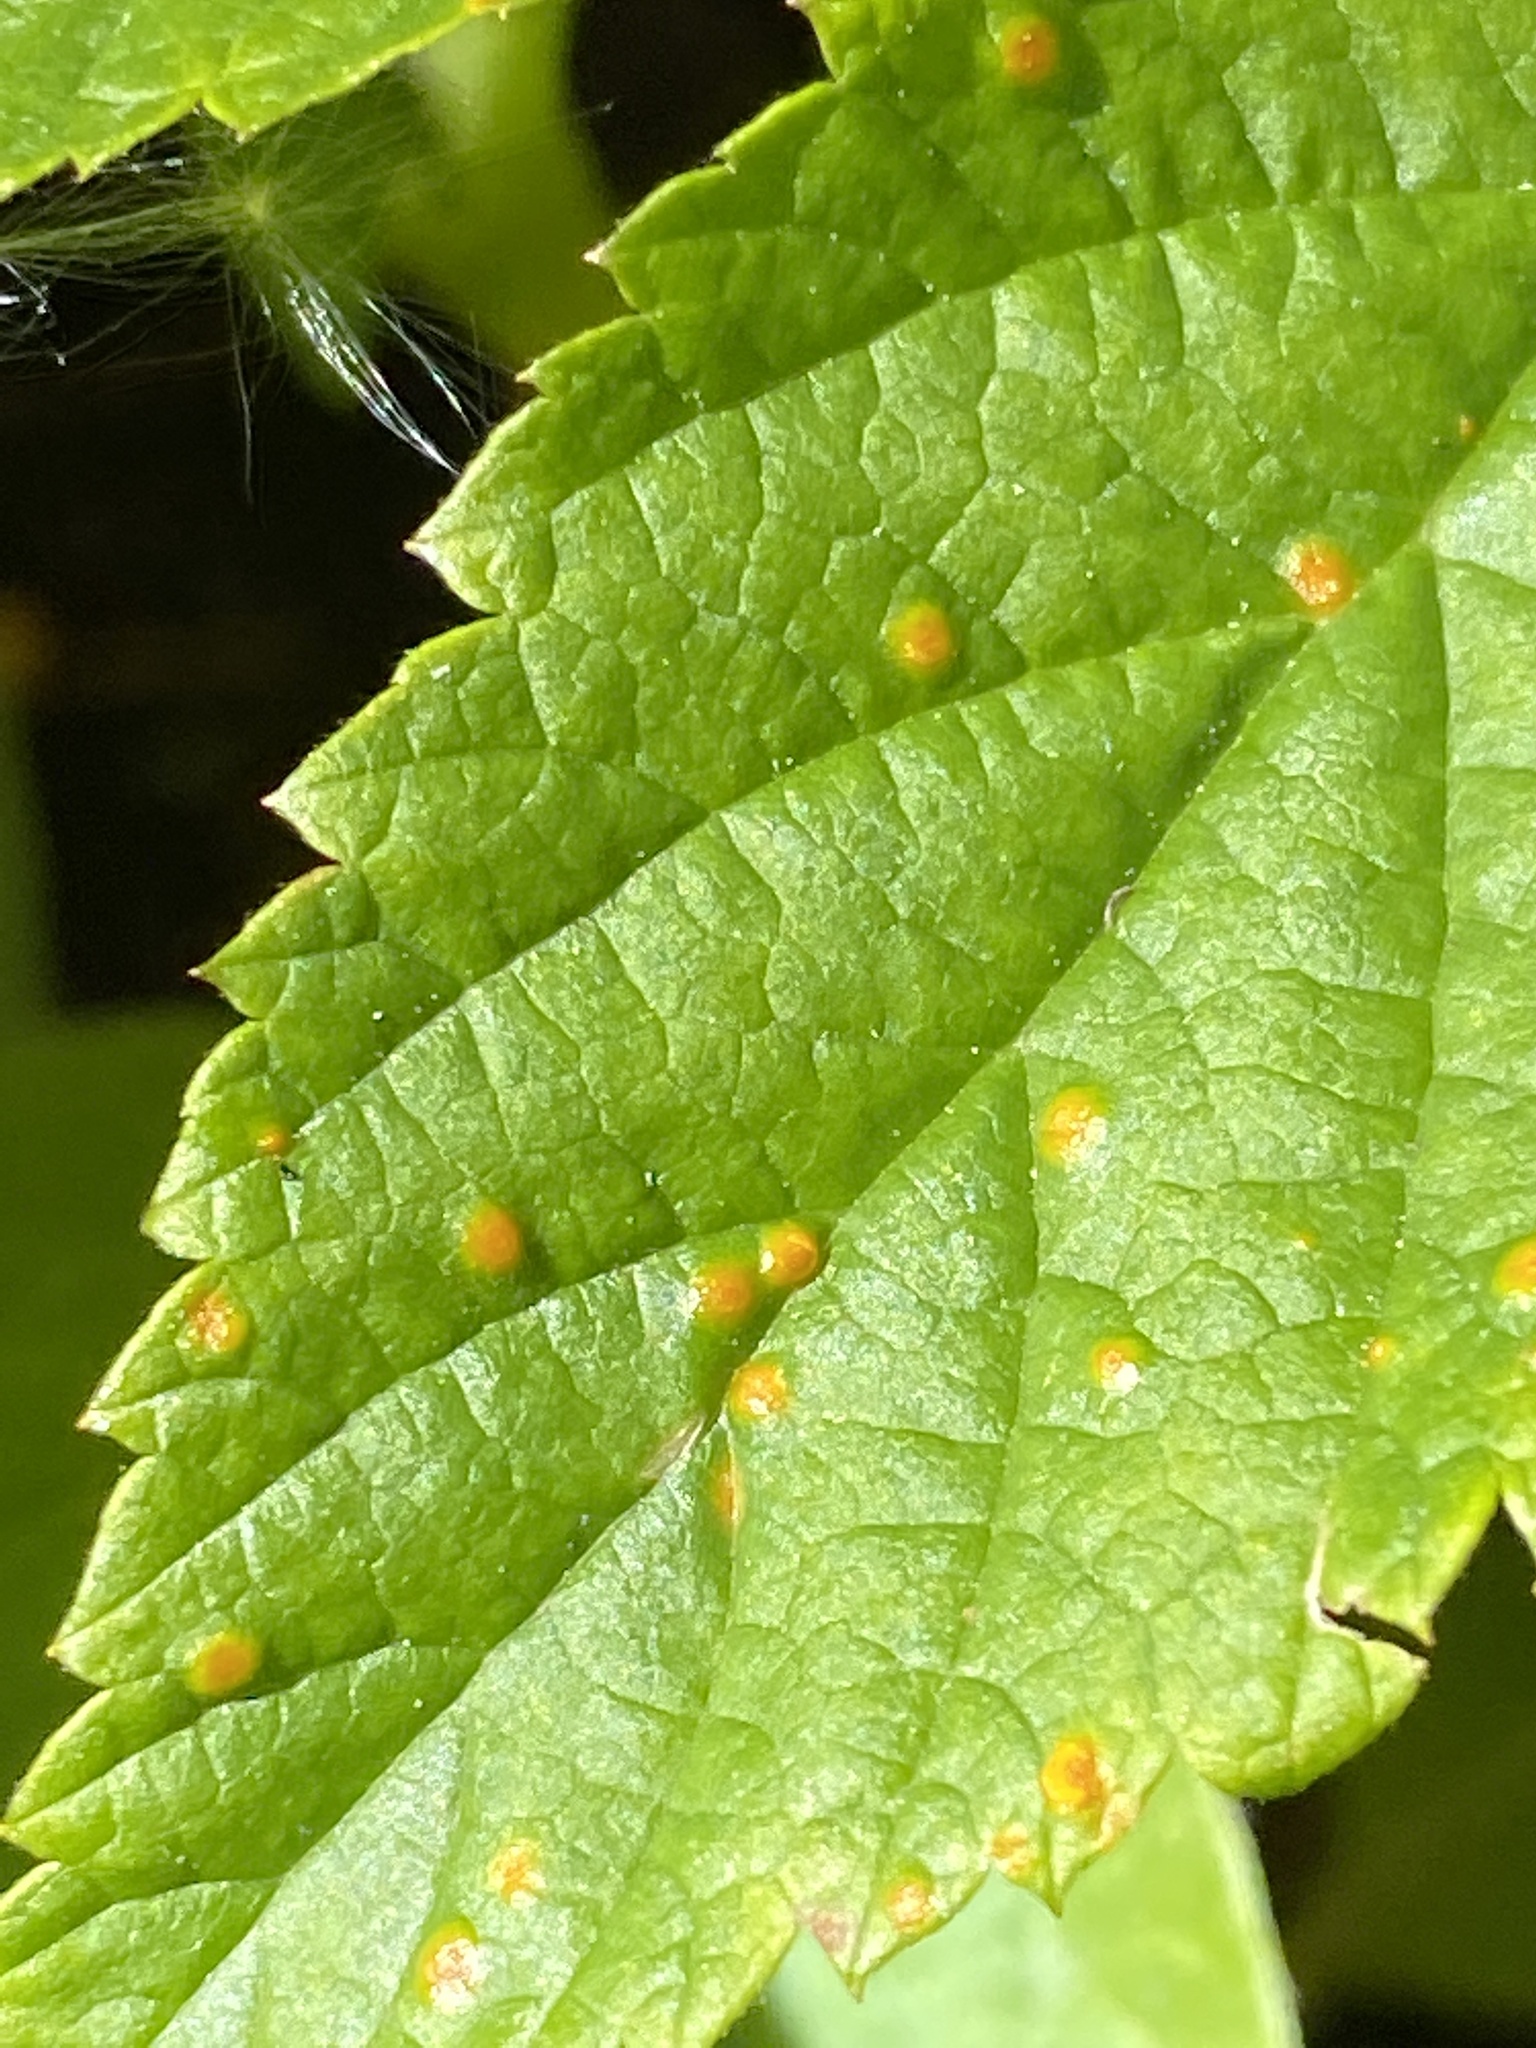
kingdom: Fungi
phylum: Basidiomycota
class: Pucciniomycetes
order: Pucciniales
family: Phragmidiaceae
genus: Phragmidium
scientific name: Phragmidium rubi-idaei
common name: Raspberry rust
